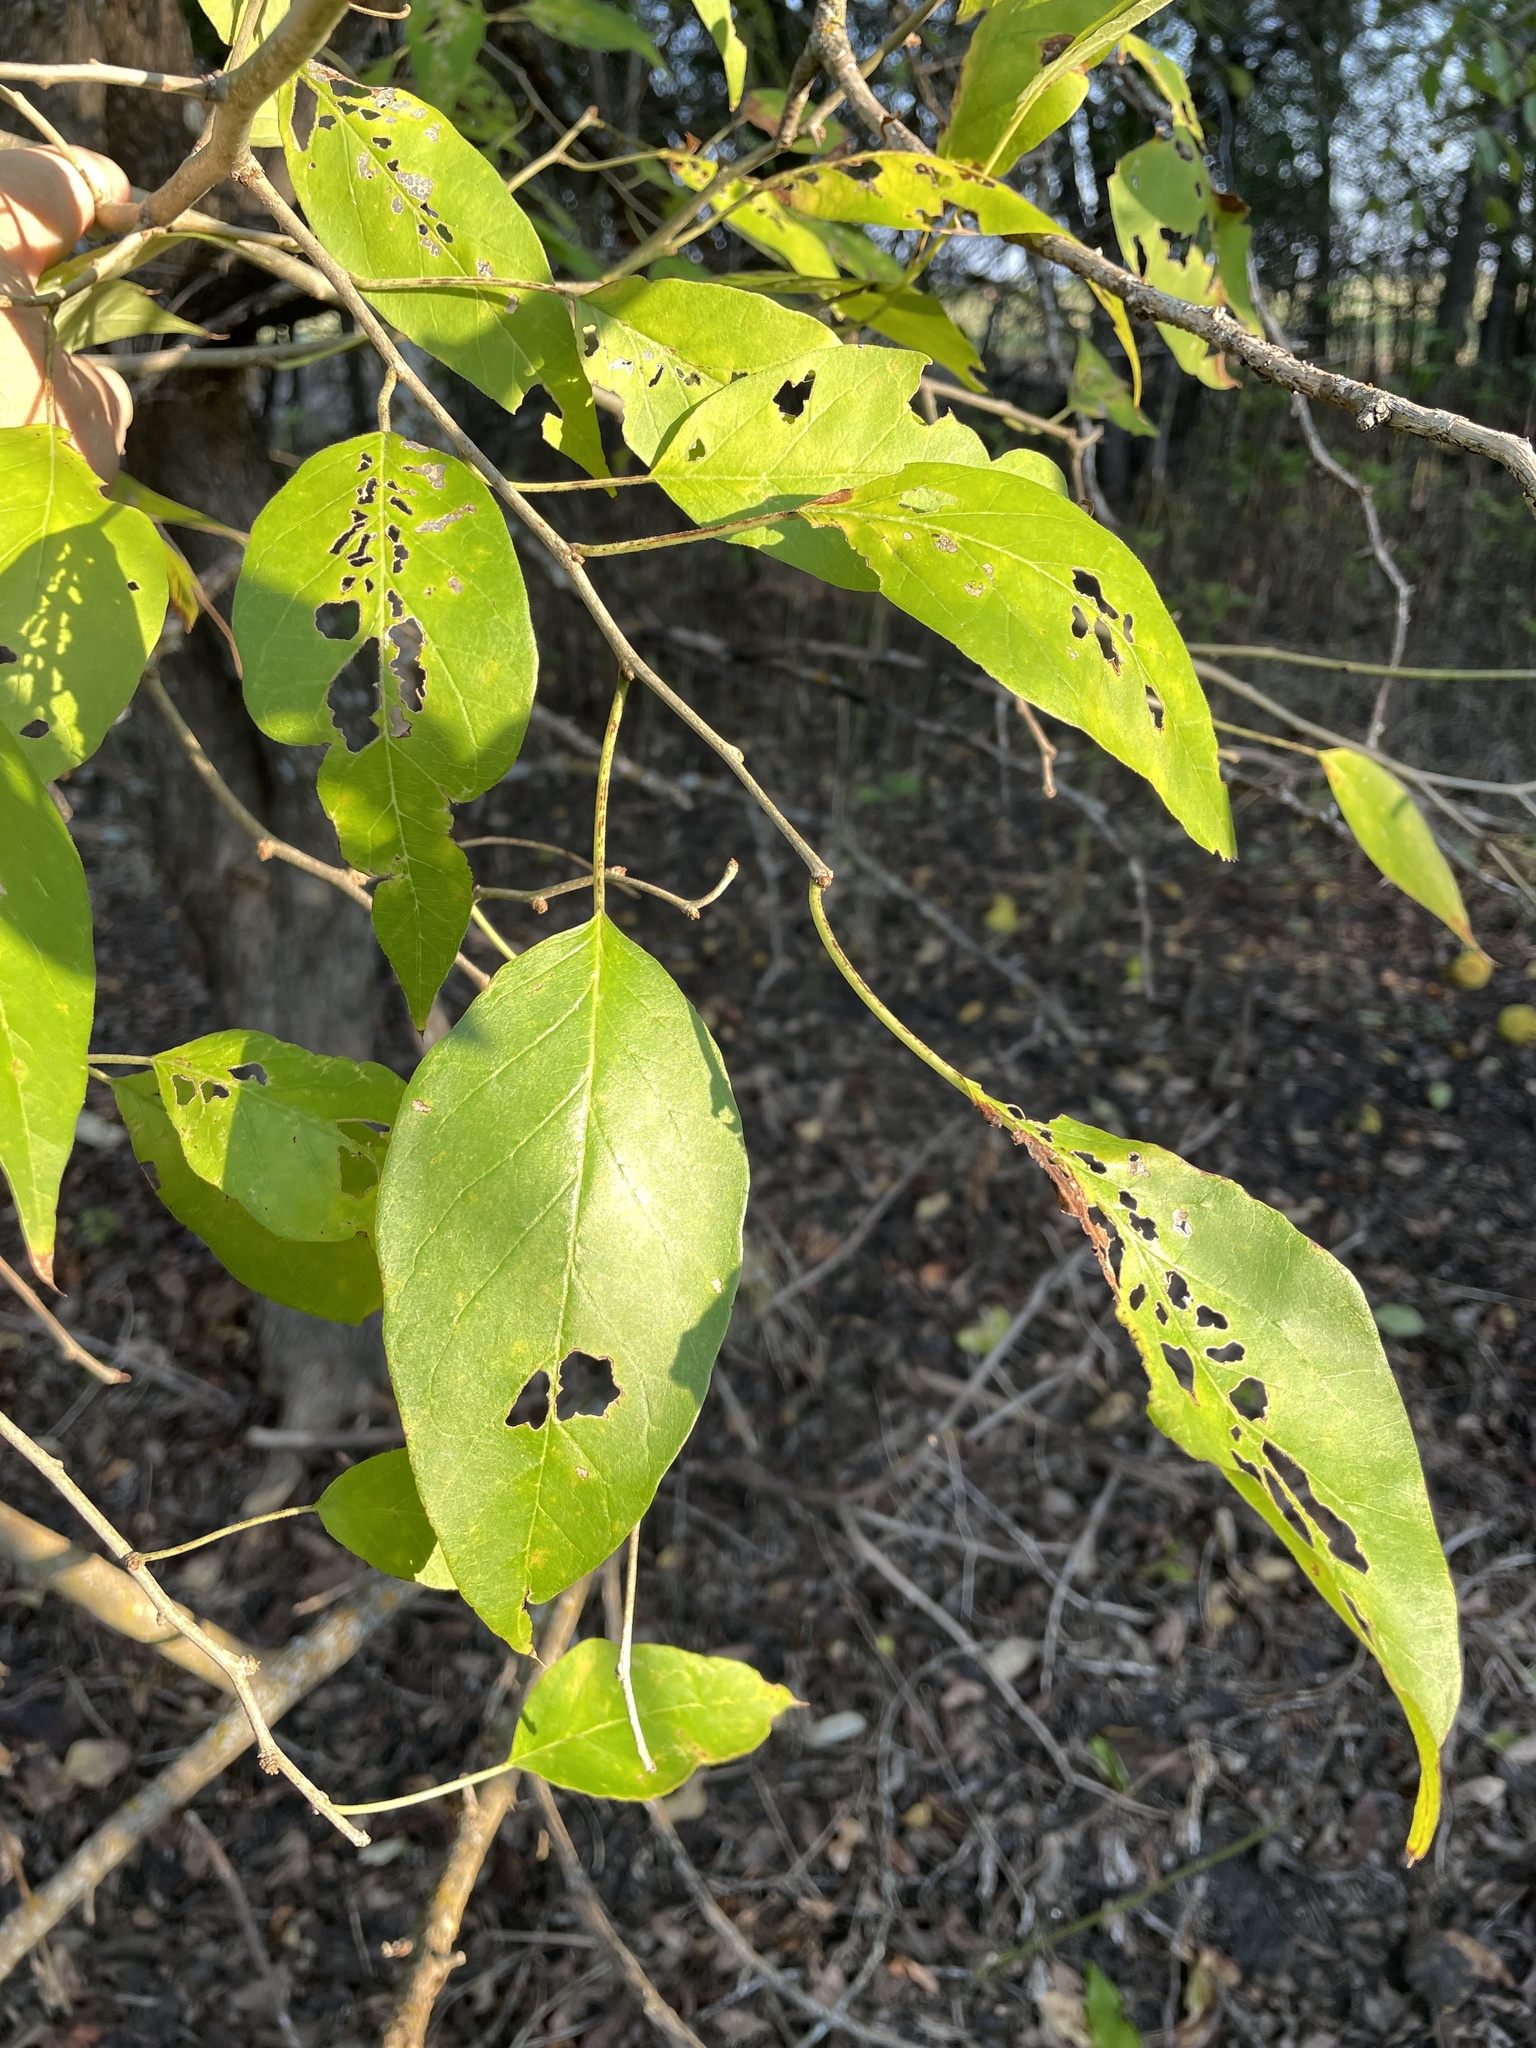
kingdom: Plantae
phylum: Tracheophyta
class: Magnoliopsida
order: Rosales
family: Moraceae
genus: Maclura
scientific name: Maclura pomifera
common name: Osage-orange
